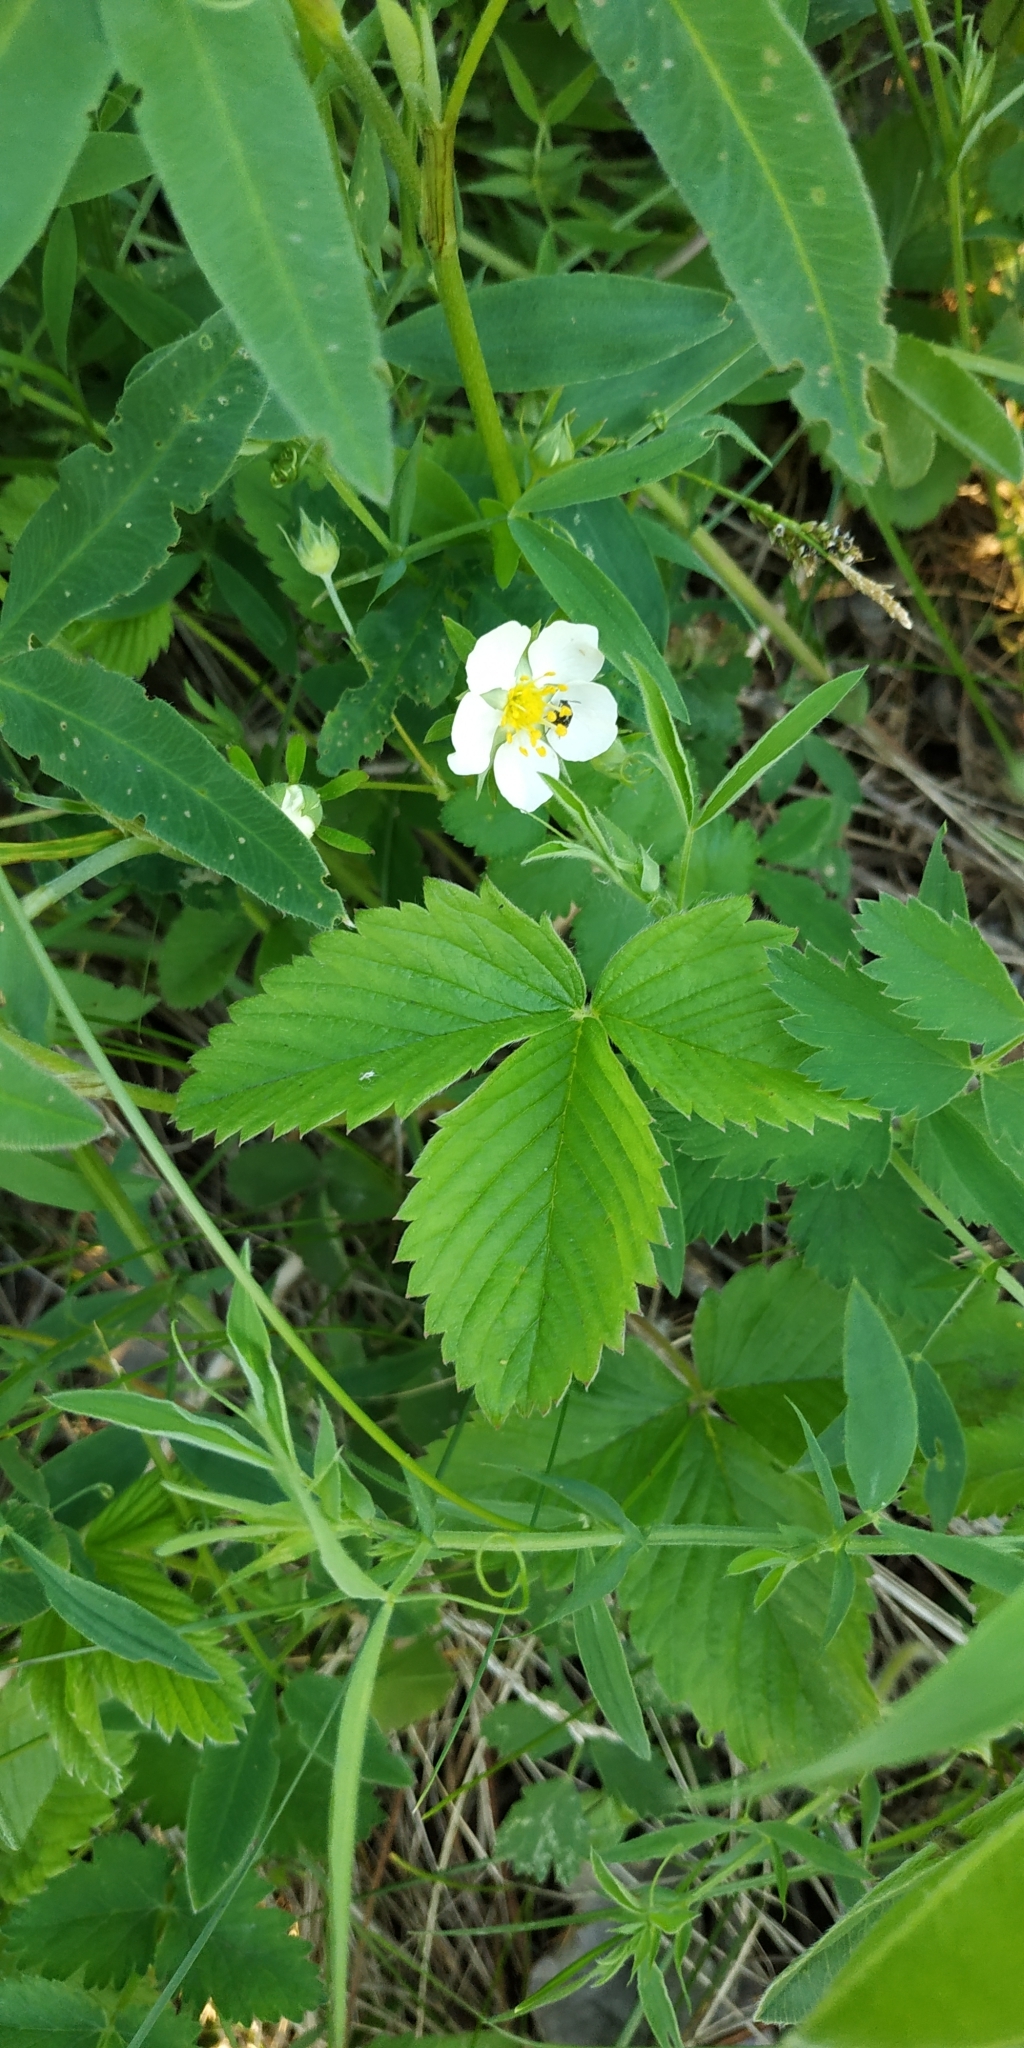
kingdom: Plantae
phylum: Tracheophyta
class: Magnoliopsida
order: Rosales
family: Rosaceae
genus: Fragaria
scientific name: Fragaria viridis
